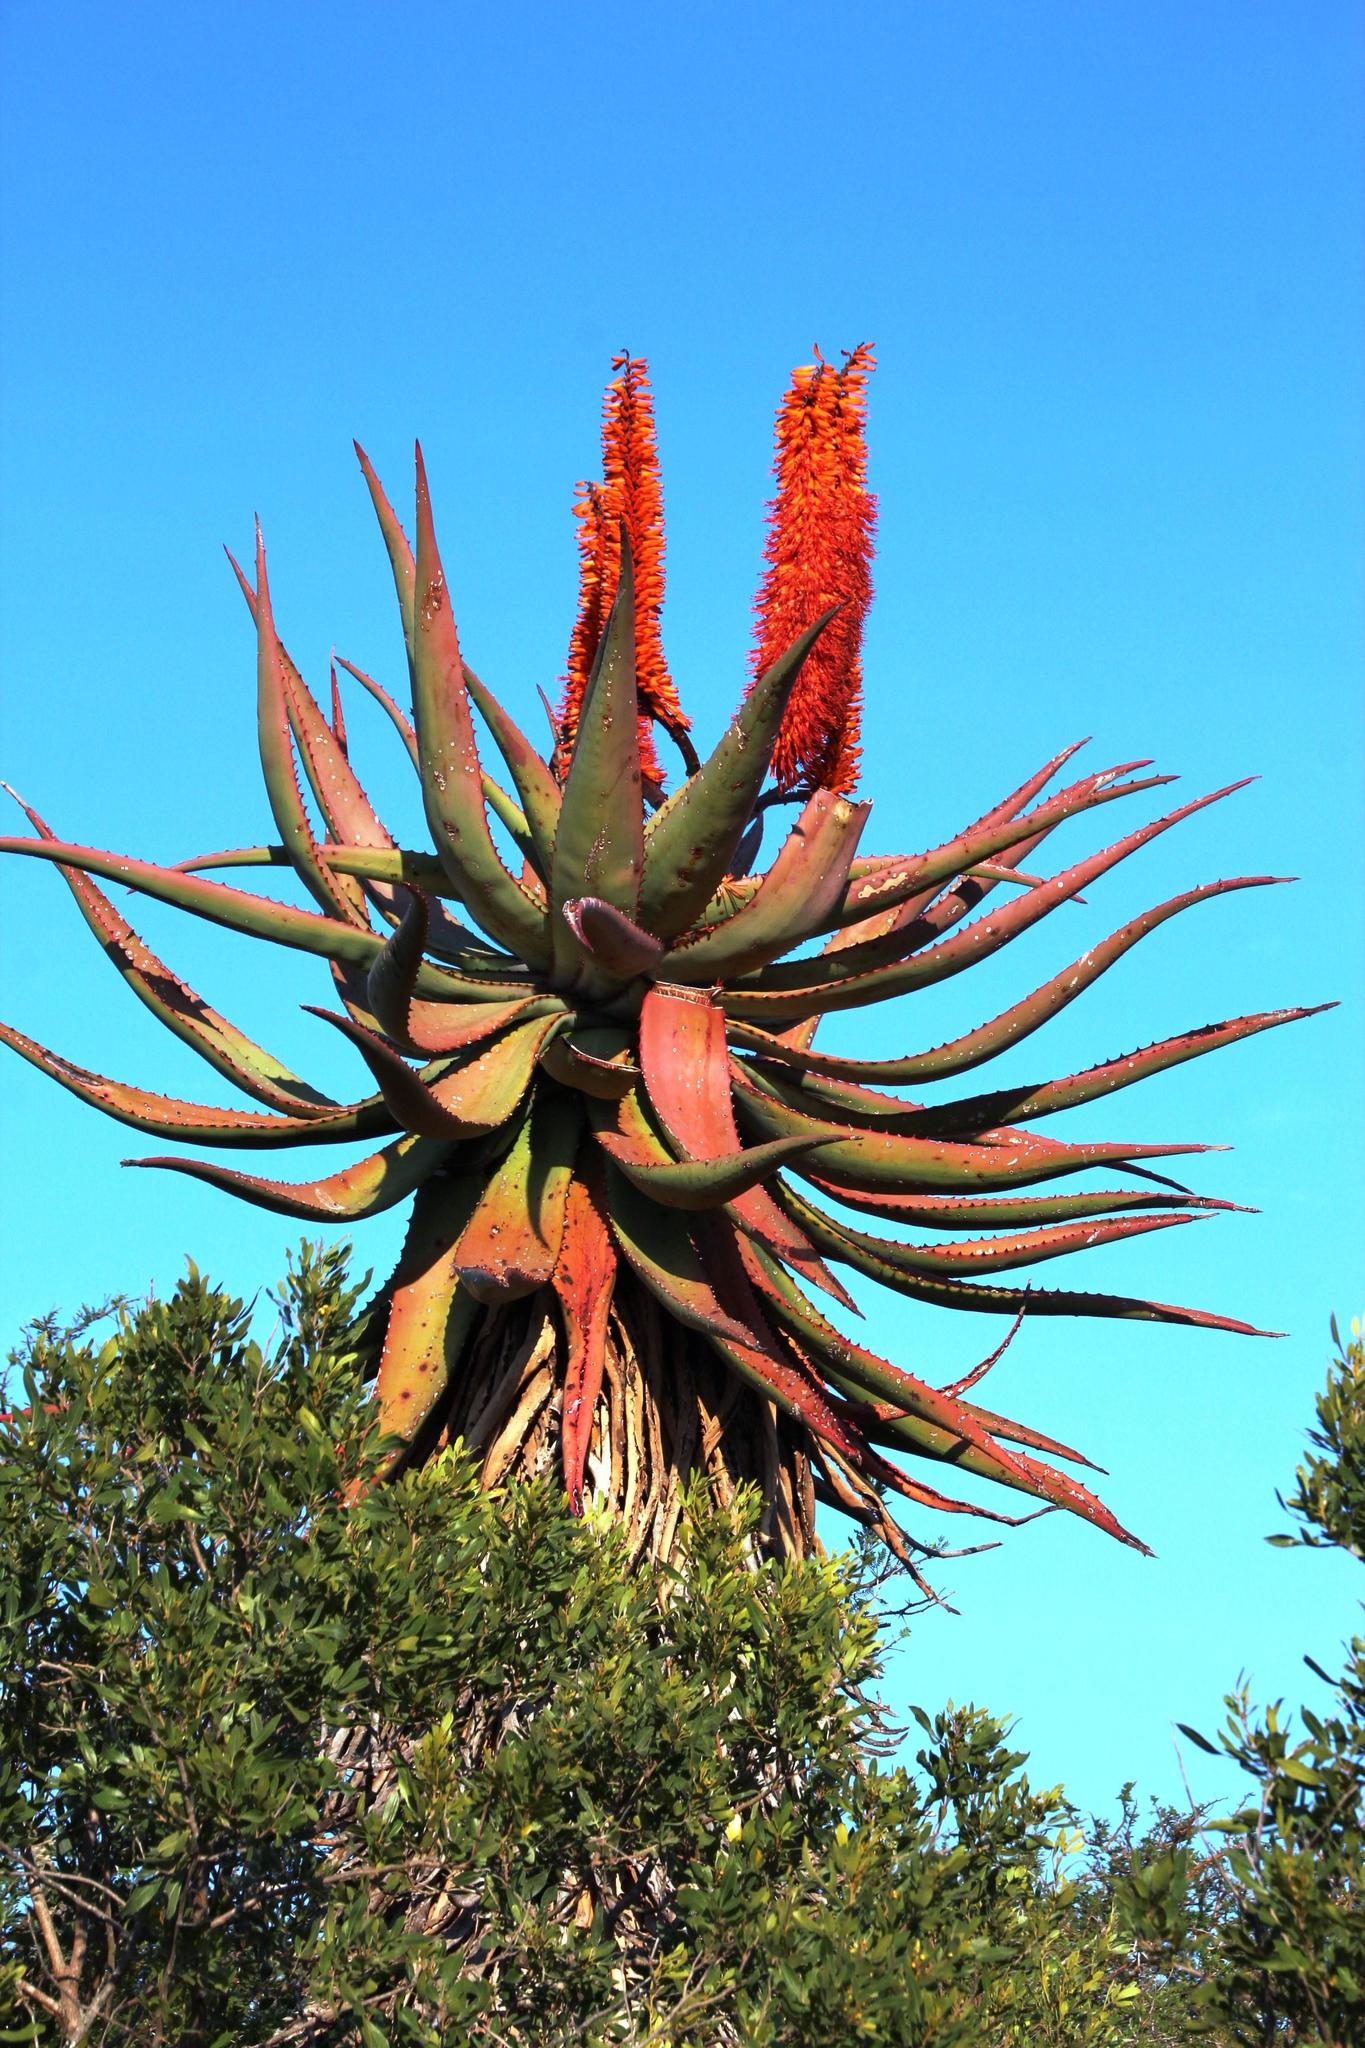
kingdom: Plantae
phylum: Tracheophyta
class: Liliopsida
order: Asparagales
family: Asphodelaceae
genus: Aloe
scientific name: Aloe ferox
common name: Bitter aloe
